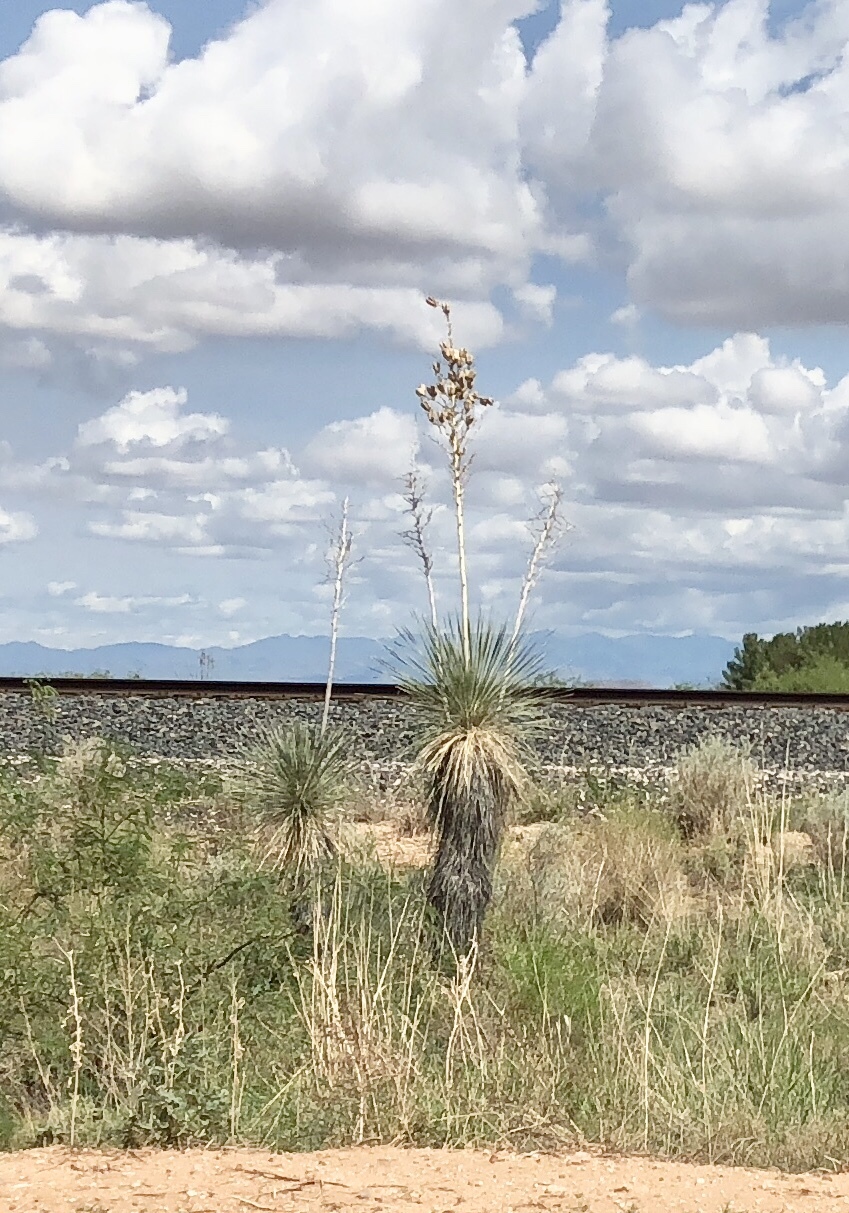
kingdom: Plantae
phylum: Tracheophyta
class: Liliopsida
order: Asparagales
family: Asparagaceae
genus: Yucca
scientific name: Yucca elata
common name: Palmella
